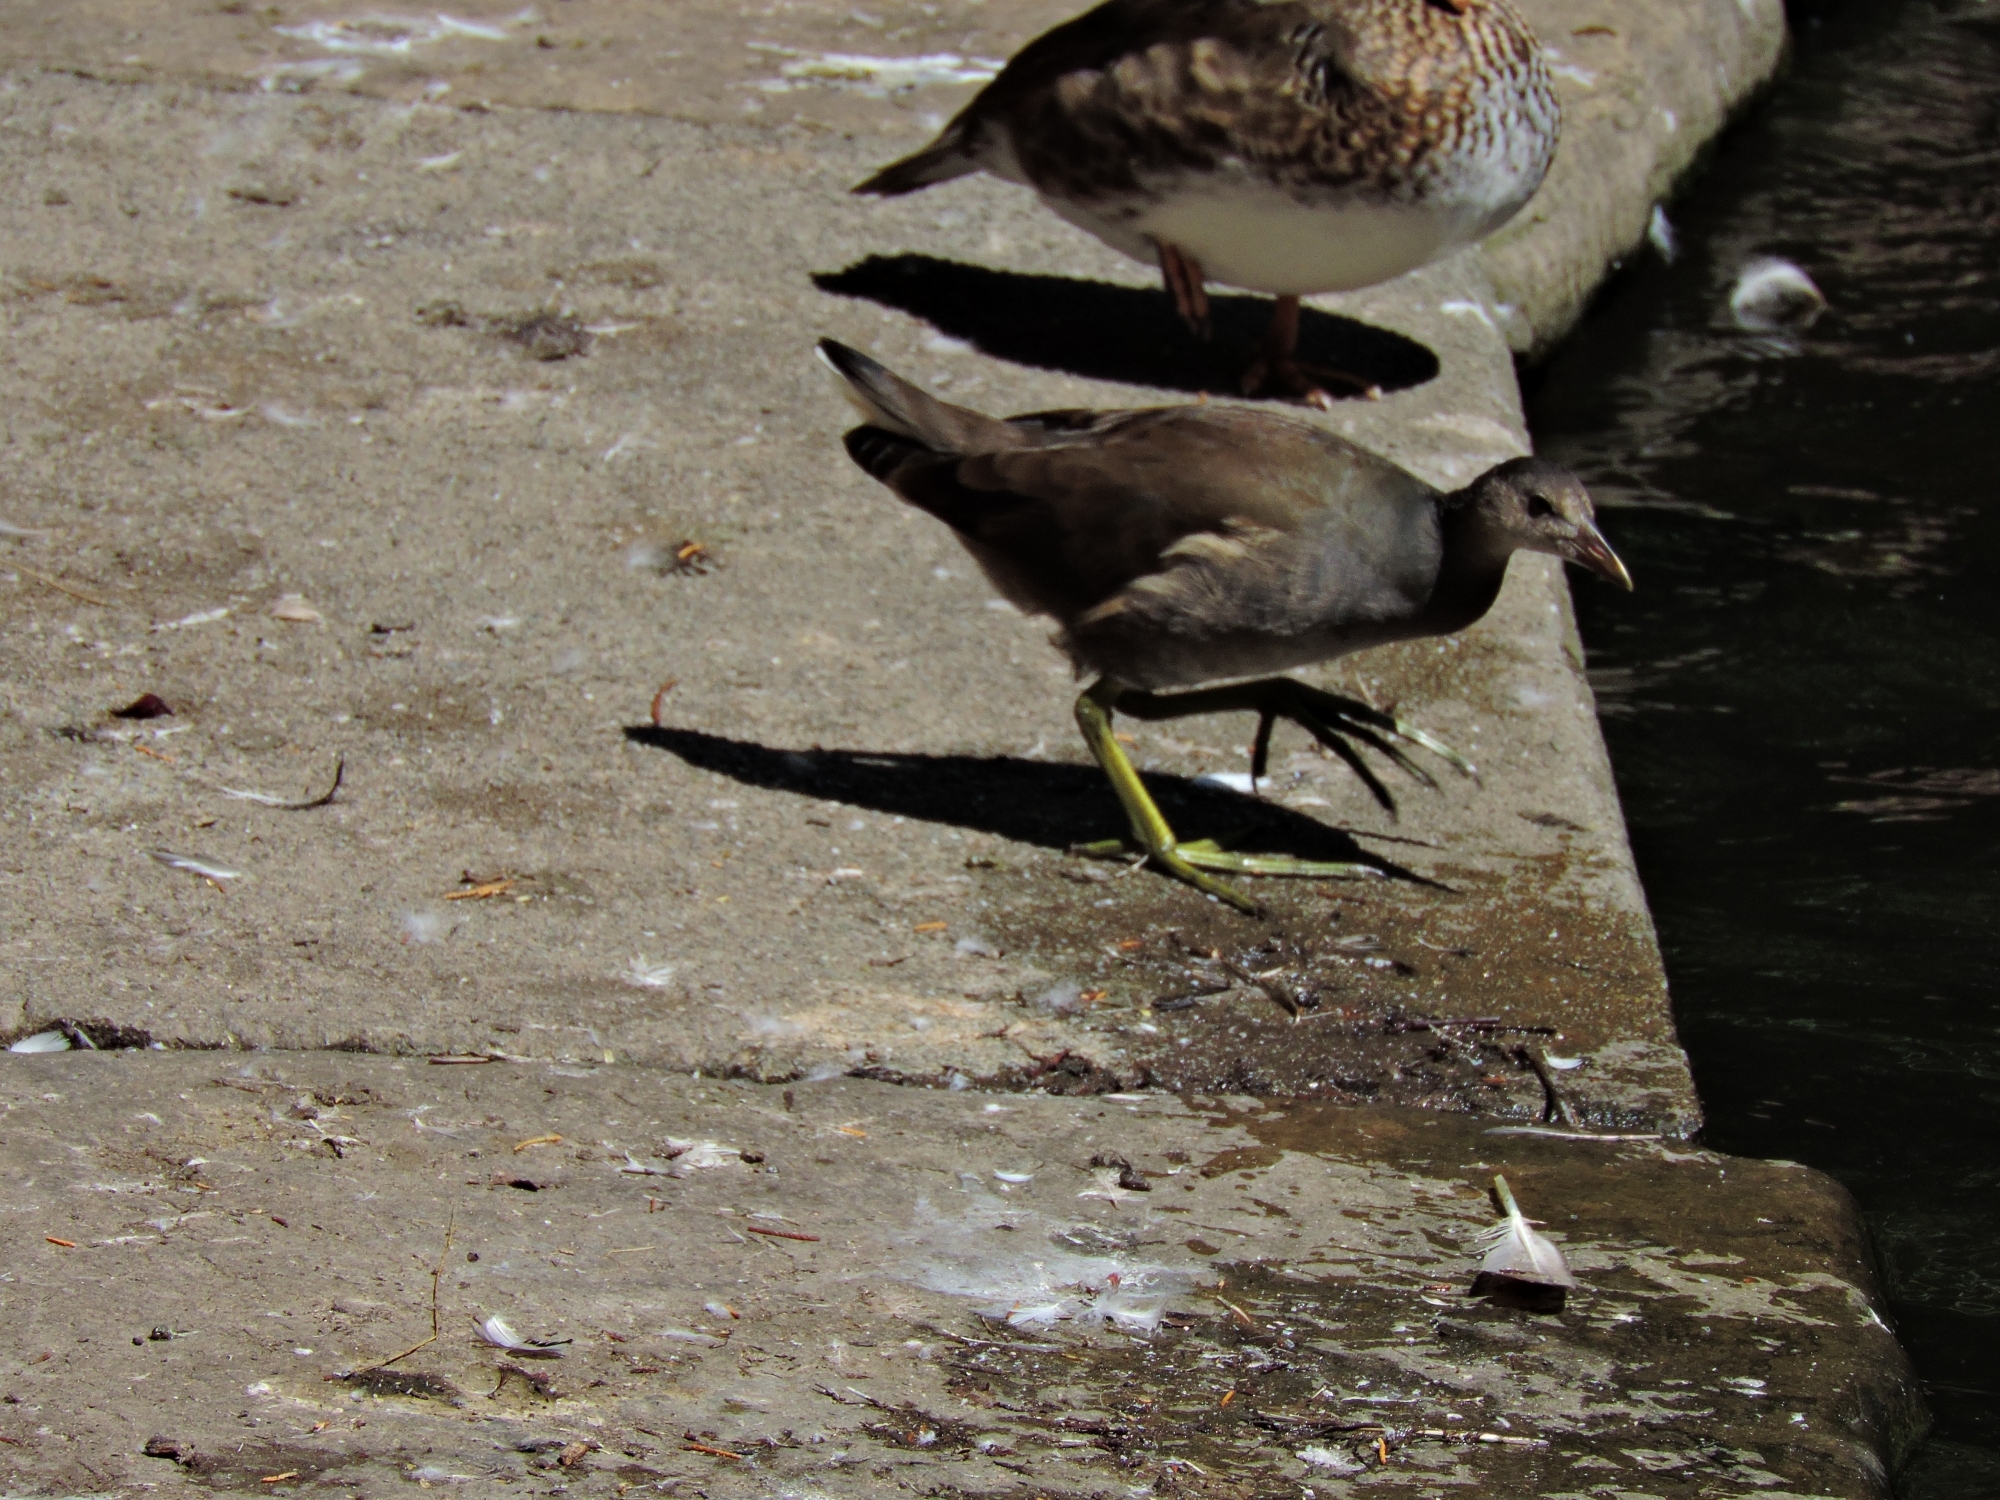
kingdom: Animalia
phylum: Chordata
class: Aves
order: Gruiformes
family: Rallidae
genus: Gallinula
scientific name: Gallinula chloropus
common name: Common moorhen
